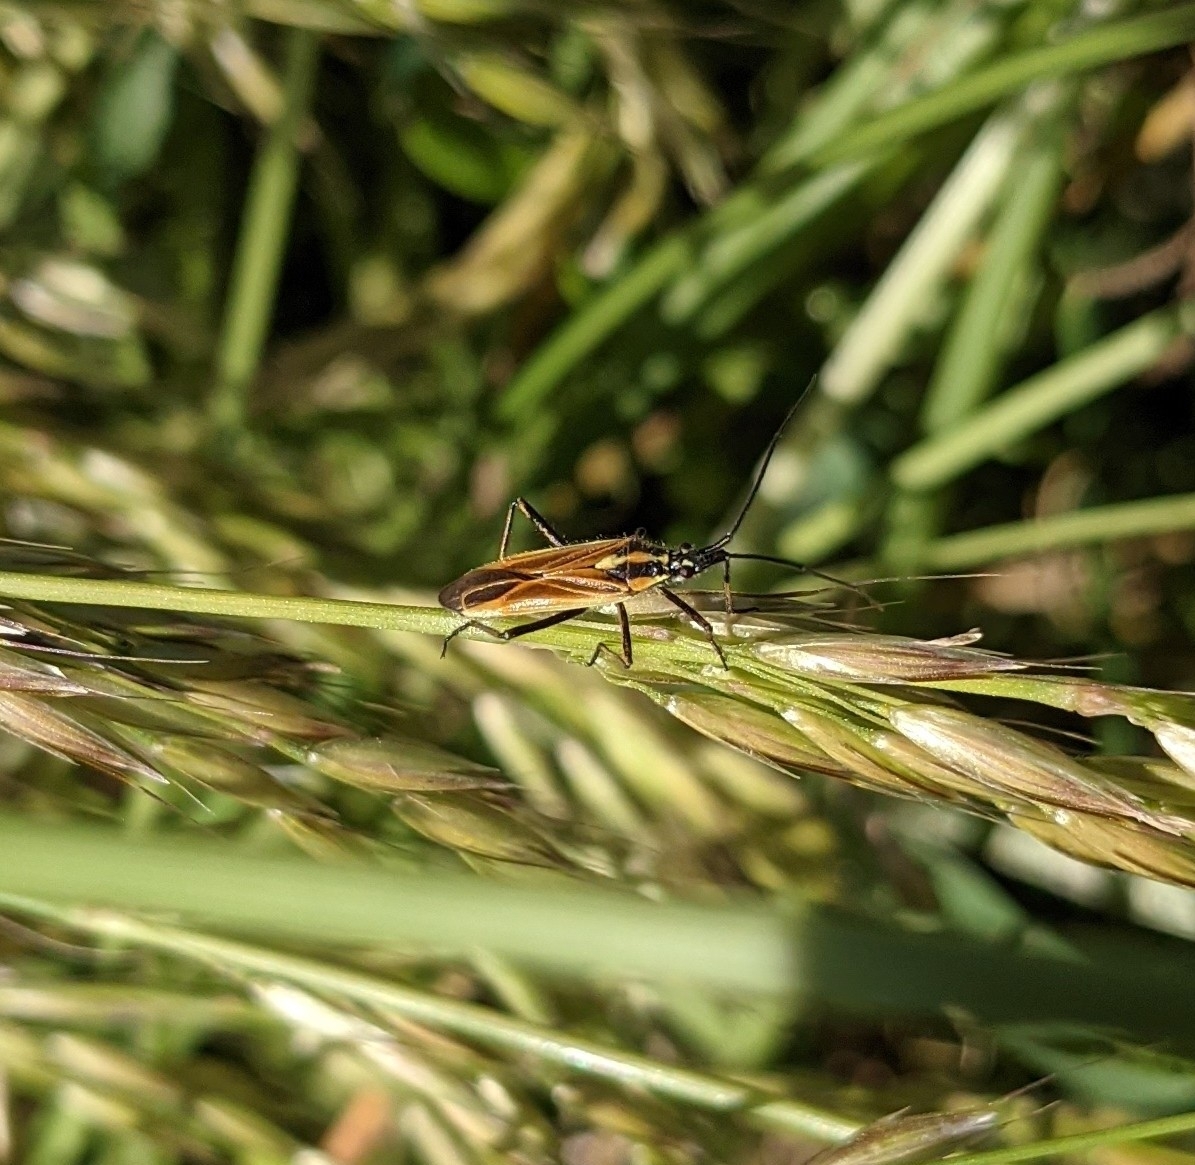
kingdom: Animalia
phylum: Arthropoda
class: Insecta
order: Hemiptera
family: Miridae
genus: Leptopterna
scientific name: Leptopterna dolabrata
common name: Meadow plant bug
